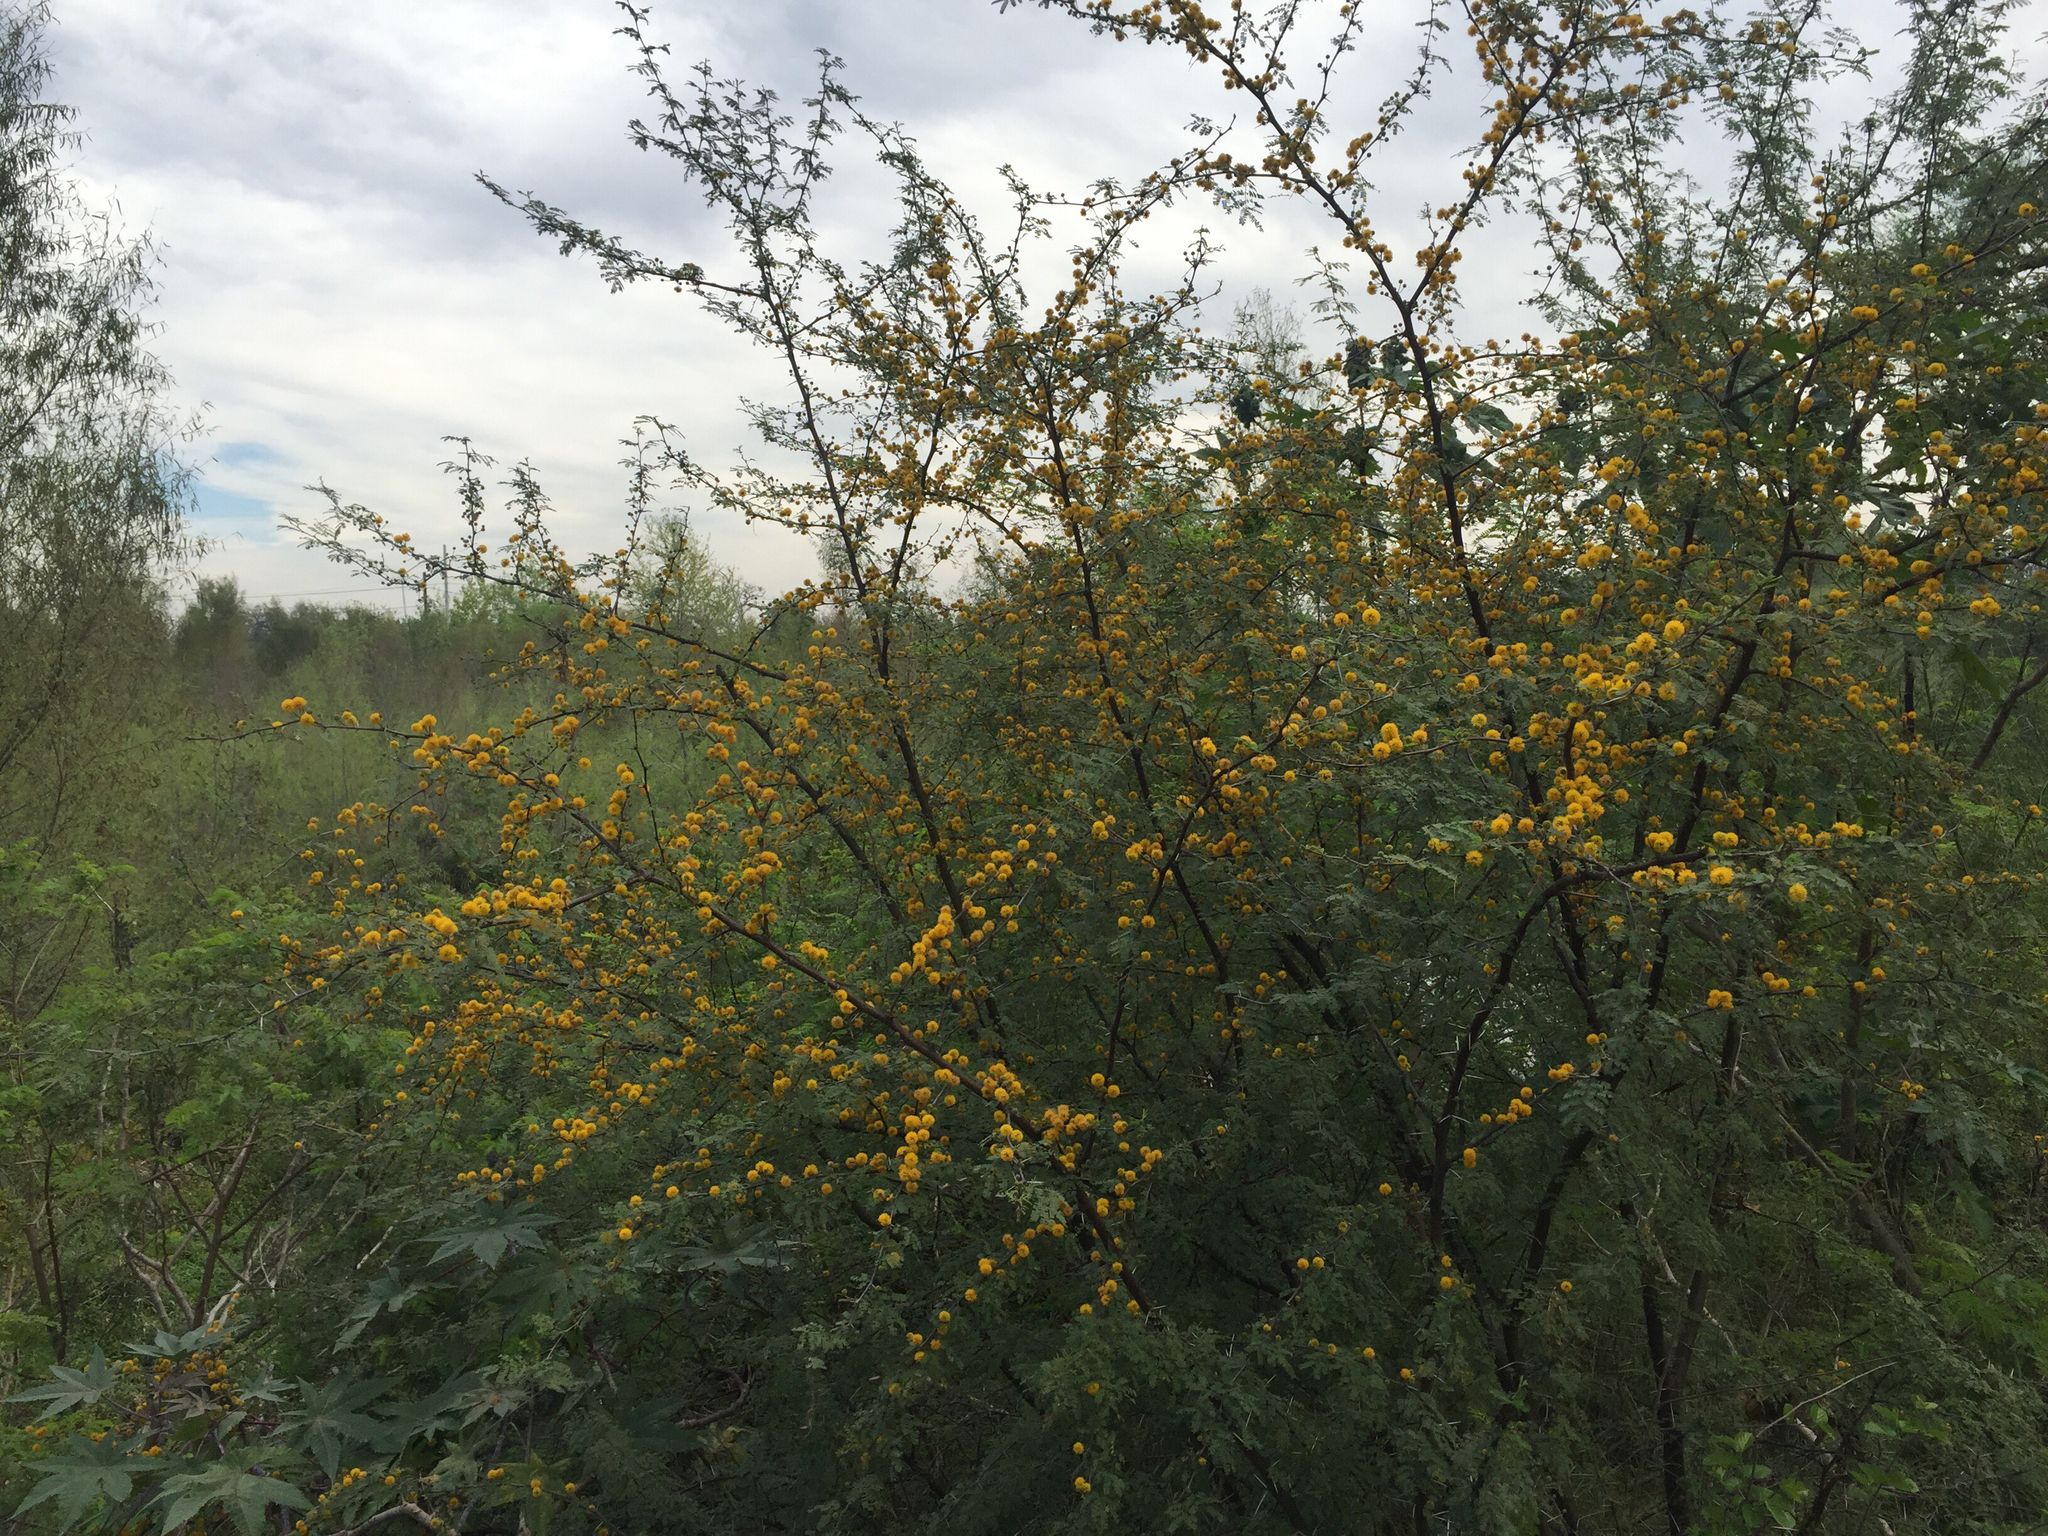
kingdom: Plantae
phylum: Tracheophyta
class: Magnoliopsida
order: Fabales
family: Fabaceae
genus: Vachellia
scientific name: Vachellia farnesiana
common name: Sweet acacia
